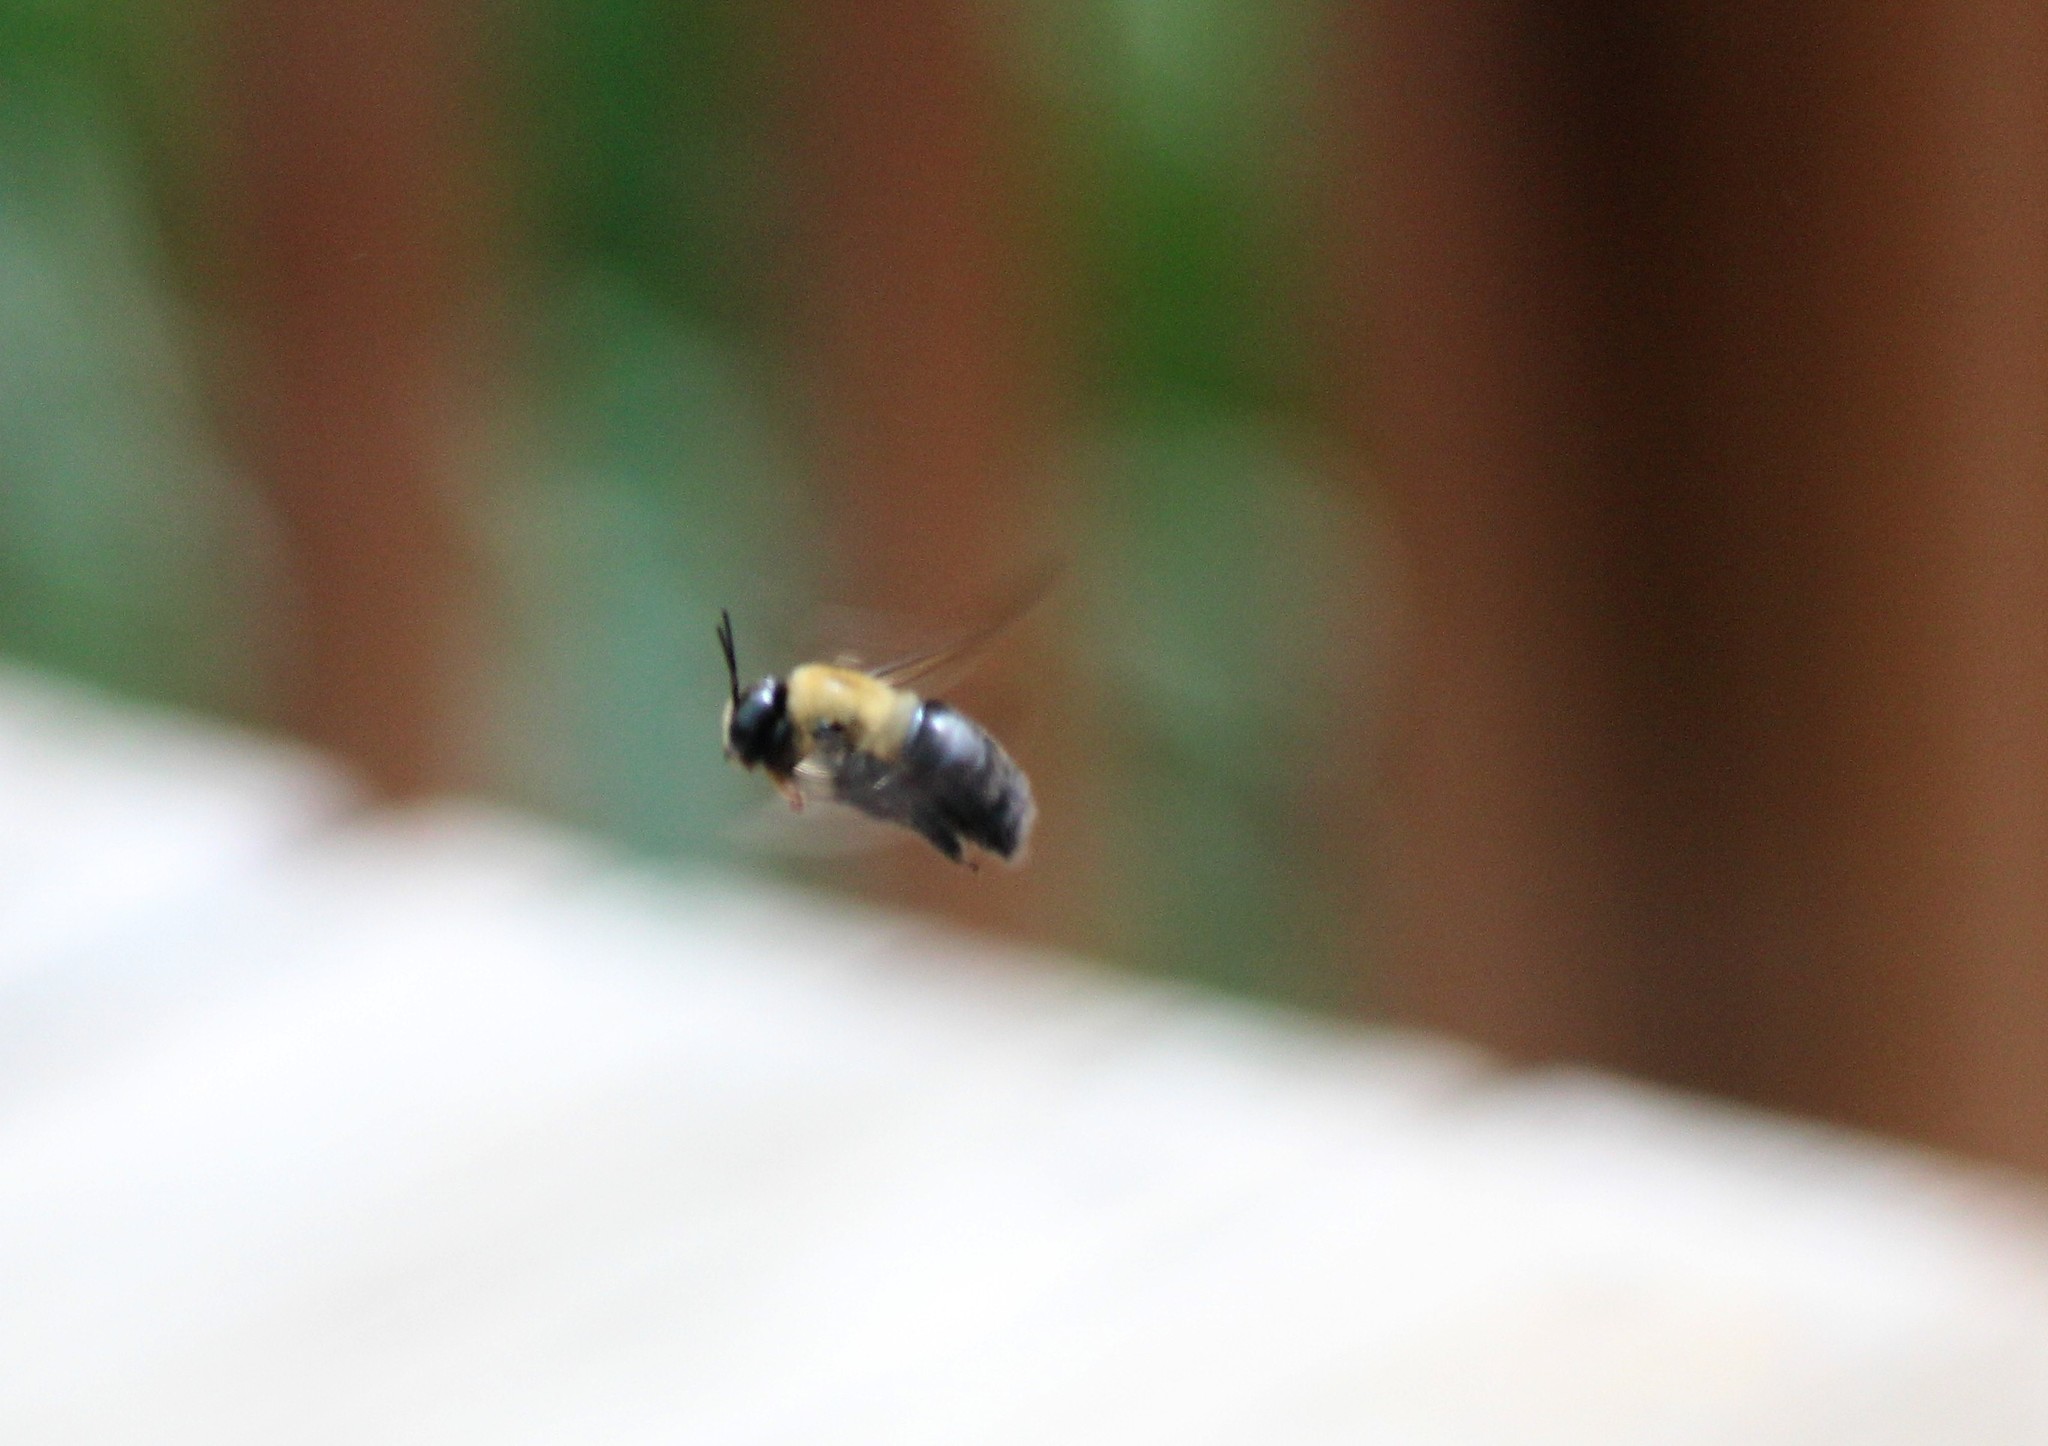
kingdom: Animalia
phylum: Arthropoda
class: Insecta
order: Hymenoptera
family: Apidae
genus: Xylocopa
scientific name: Xylocopa virginica
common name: Carpenter bee
